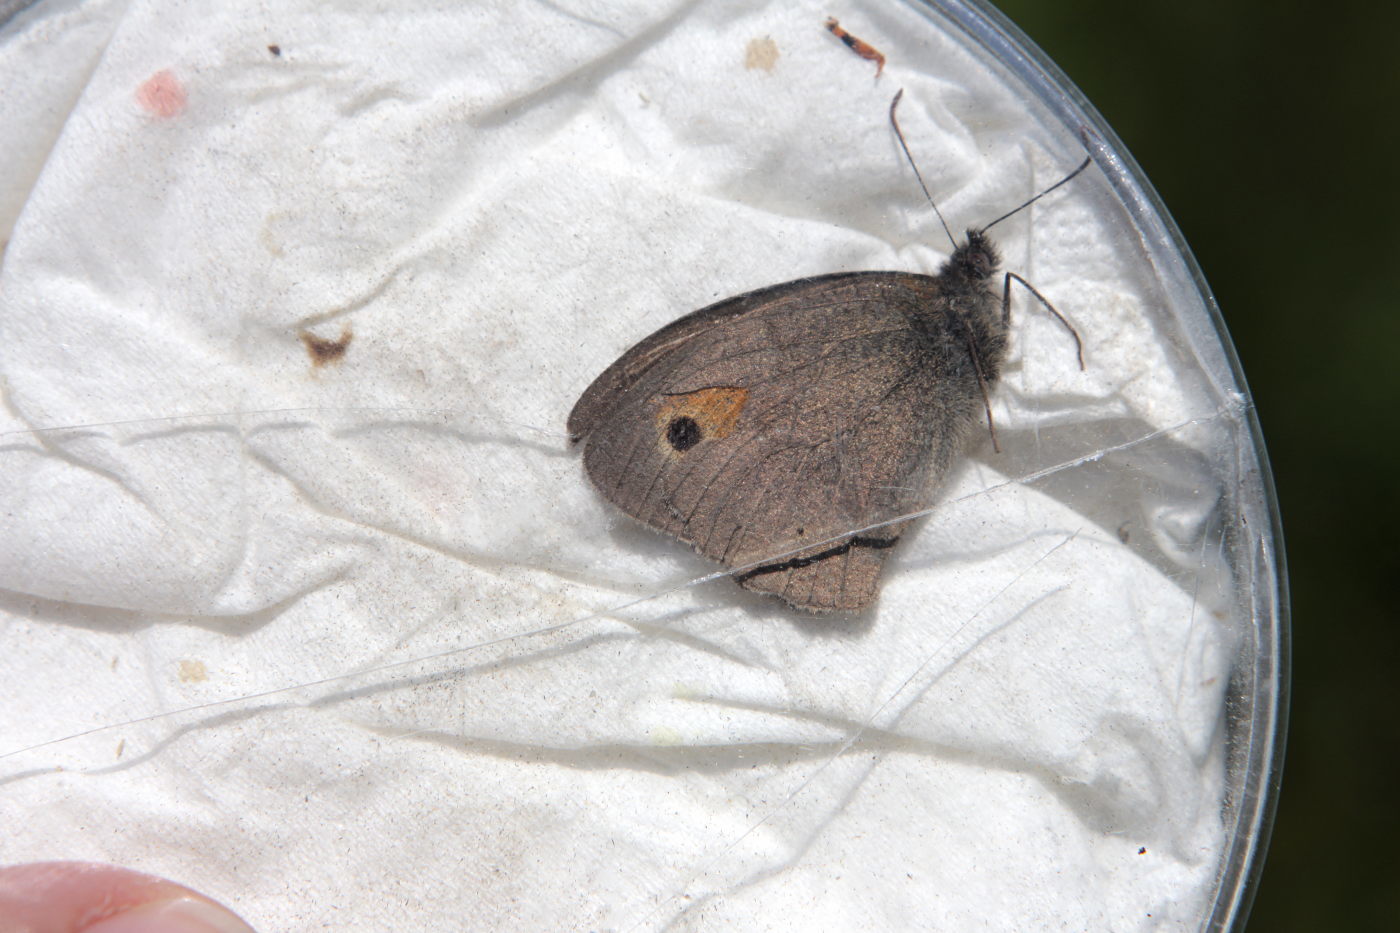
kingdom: Animalia
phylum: Arthropoda
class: Insecta
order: Lepidoptera
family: Nymphalidae
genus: Maniola
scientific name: Maniola jurtina
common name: Meadow brown
